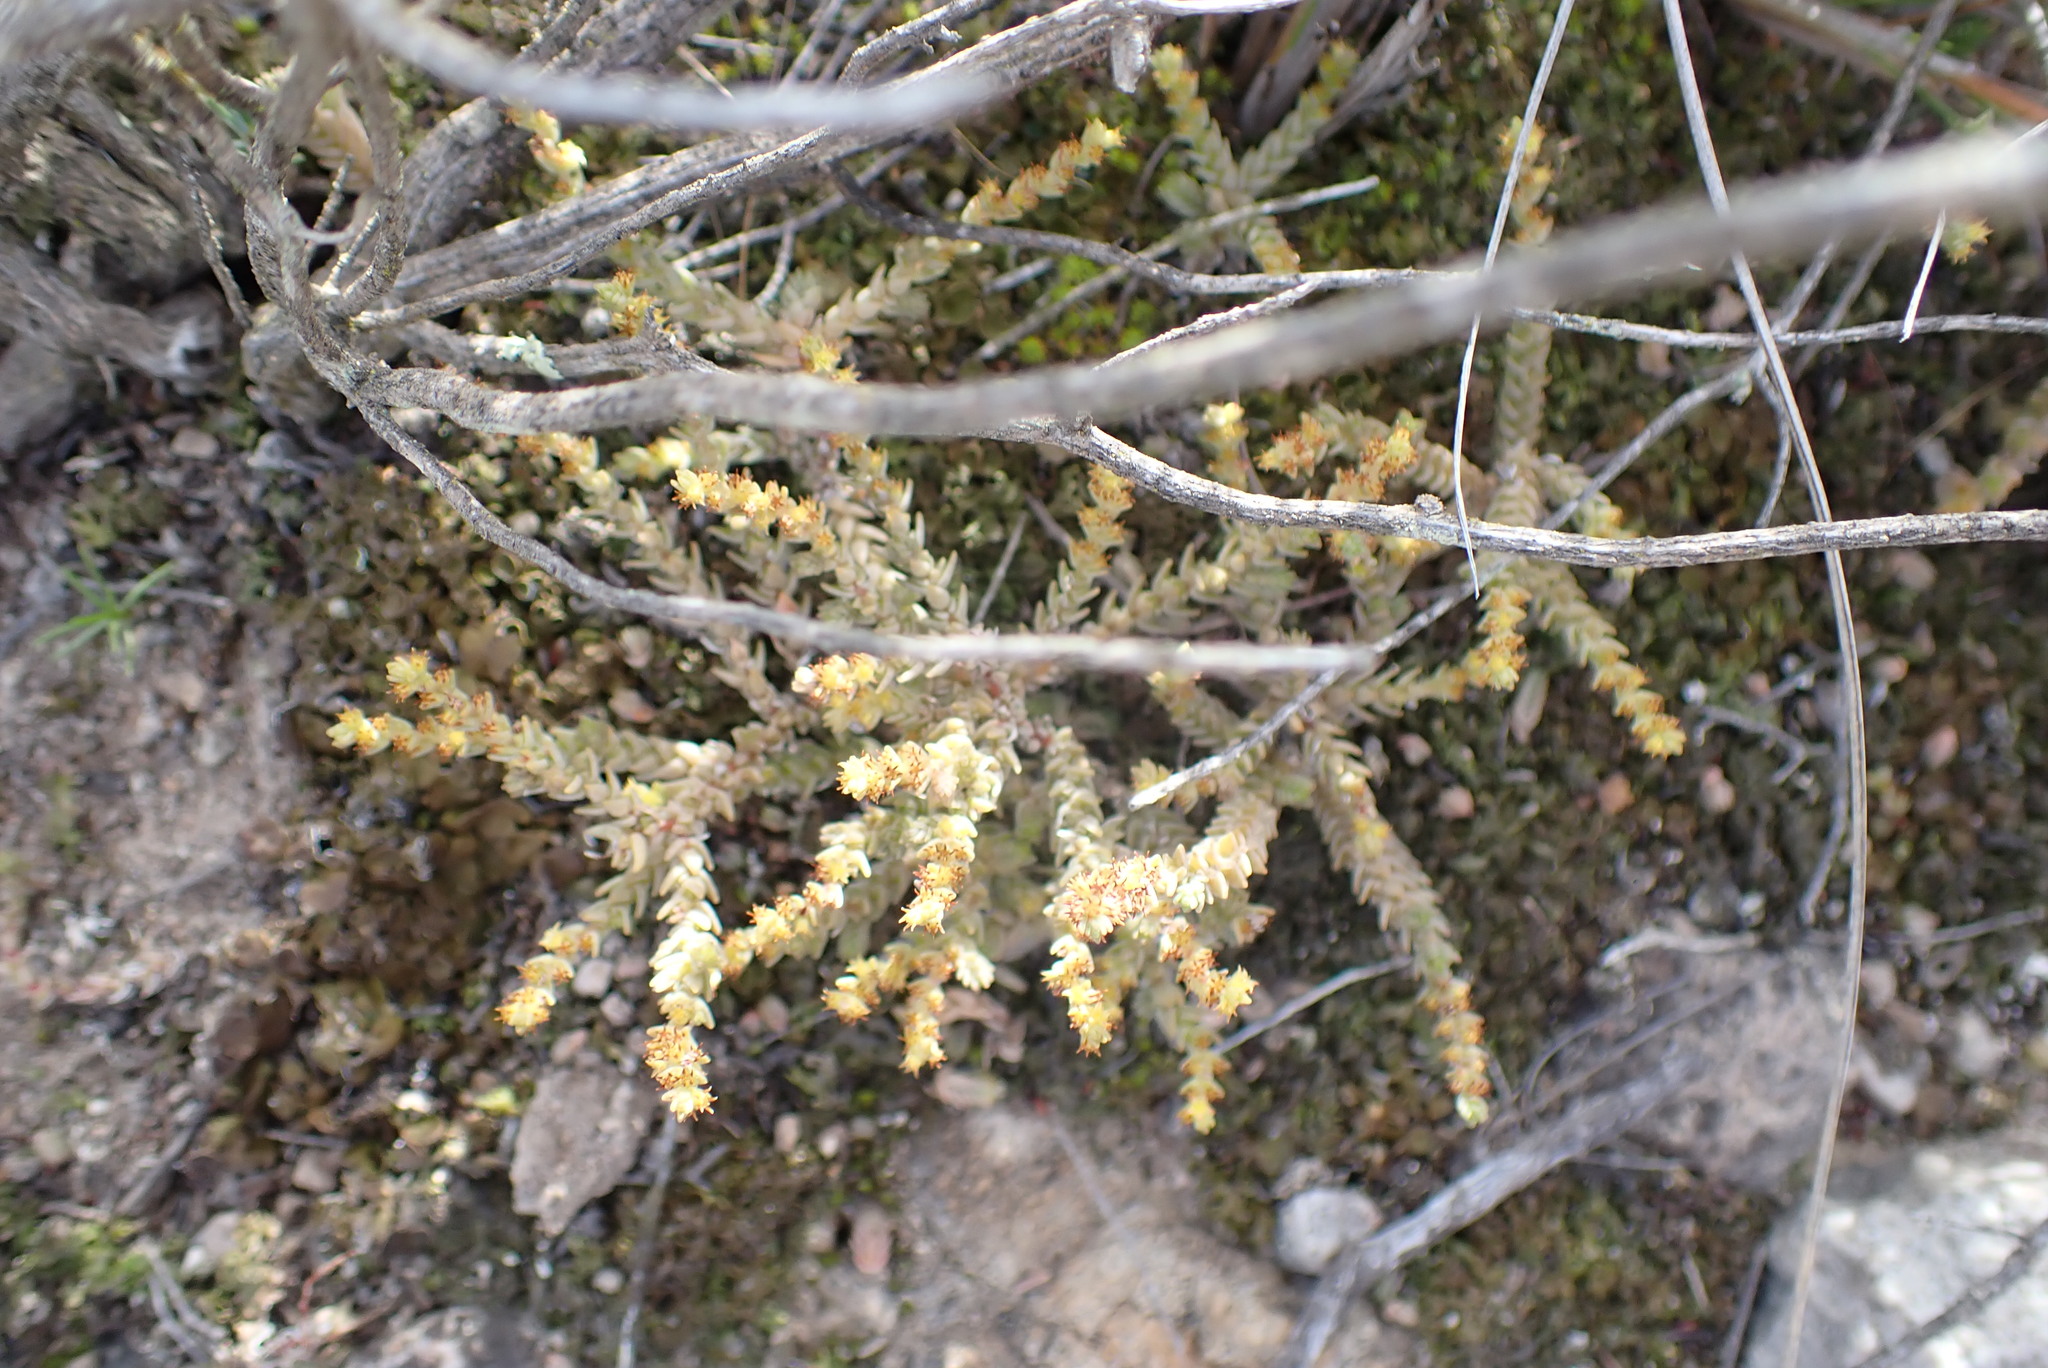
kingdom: Plantae
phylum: Tracheophyta
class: Magnoliopsida
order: Saxifragales
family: Crassulaceae
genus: Crassula
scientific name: Crassula muscosa
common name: Toy-cypress
